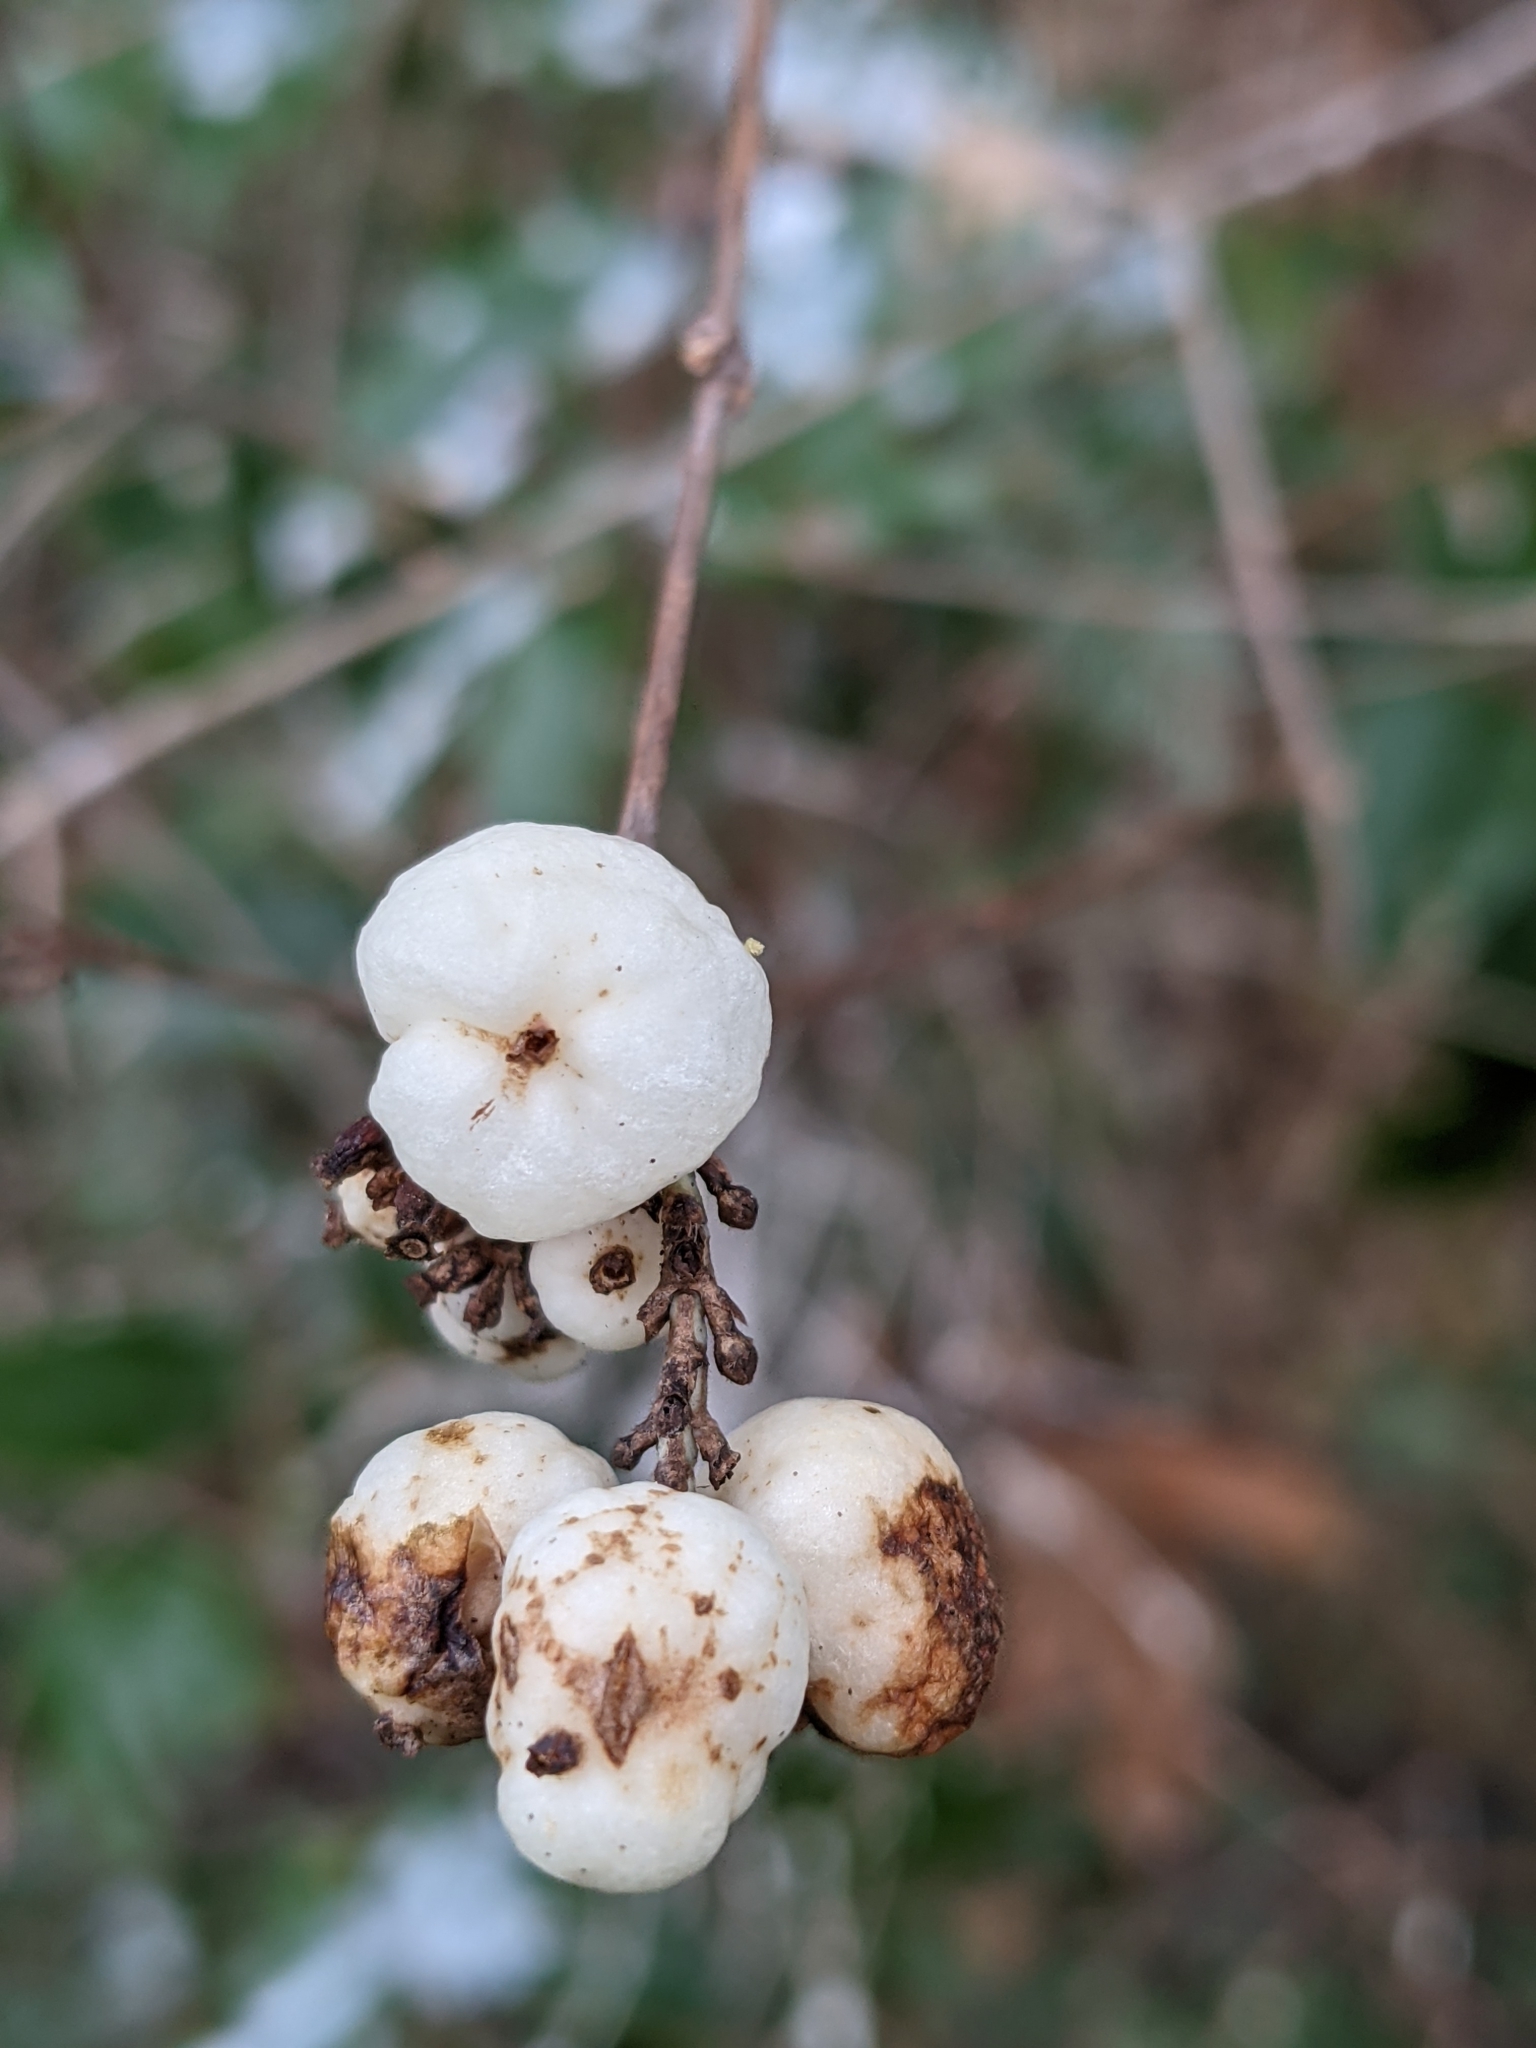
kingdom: Plantae
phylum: Tracheophyta
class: Magnoliopsida
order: Dipsacales
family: Caprifoliaceae
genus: Symphoricarpos
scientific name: Symphoricarpos albus
